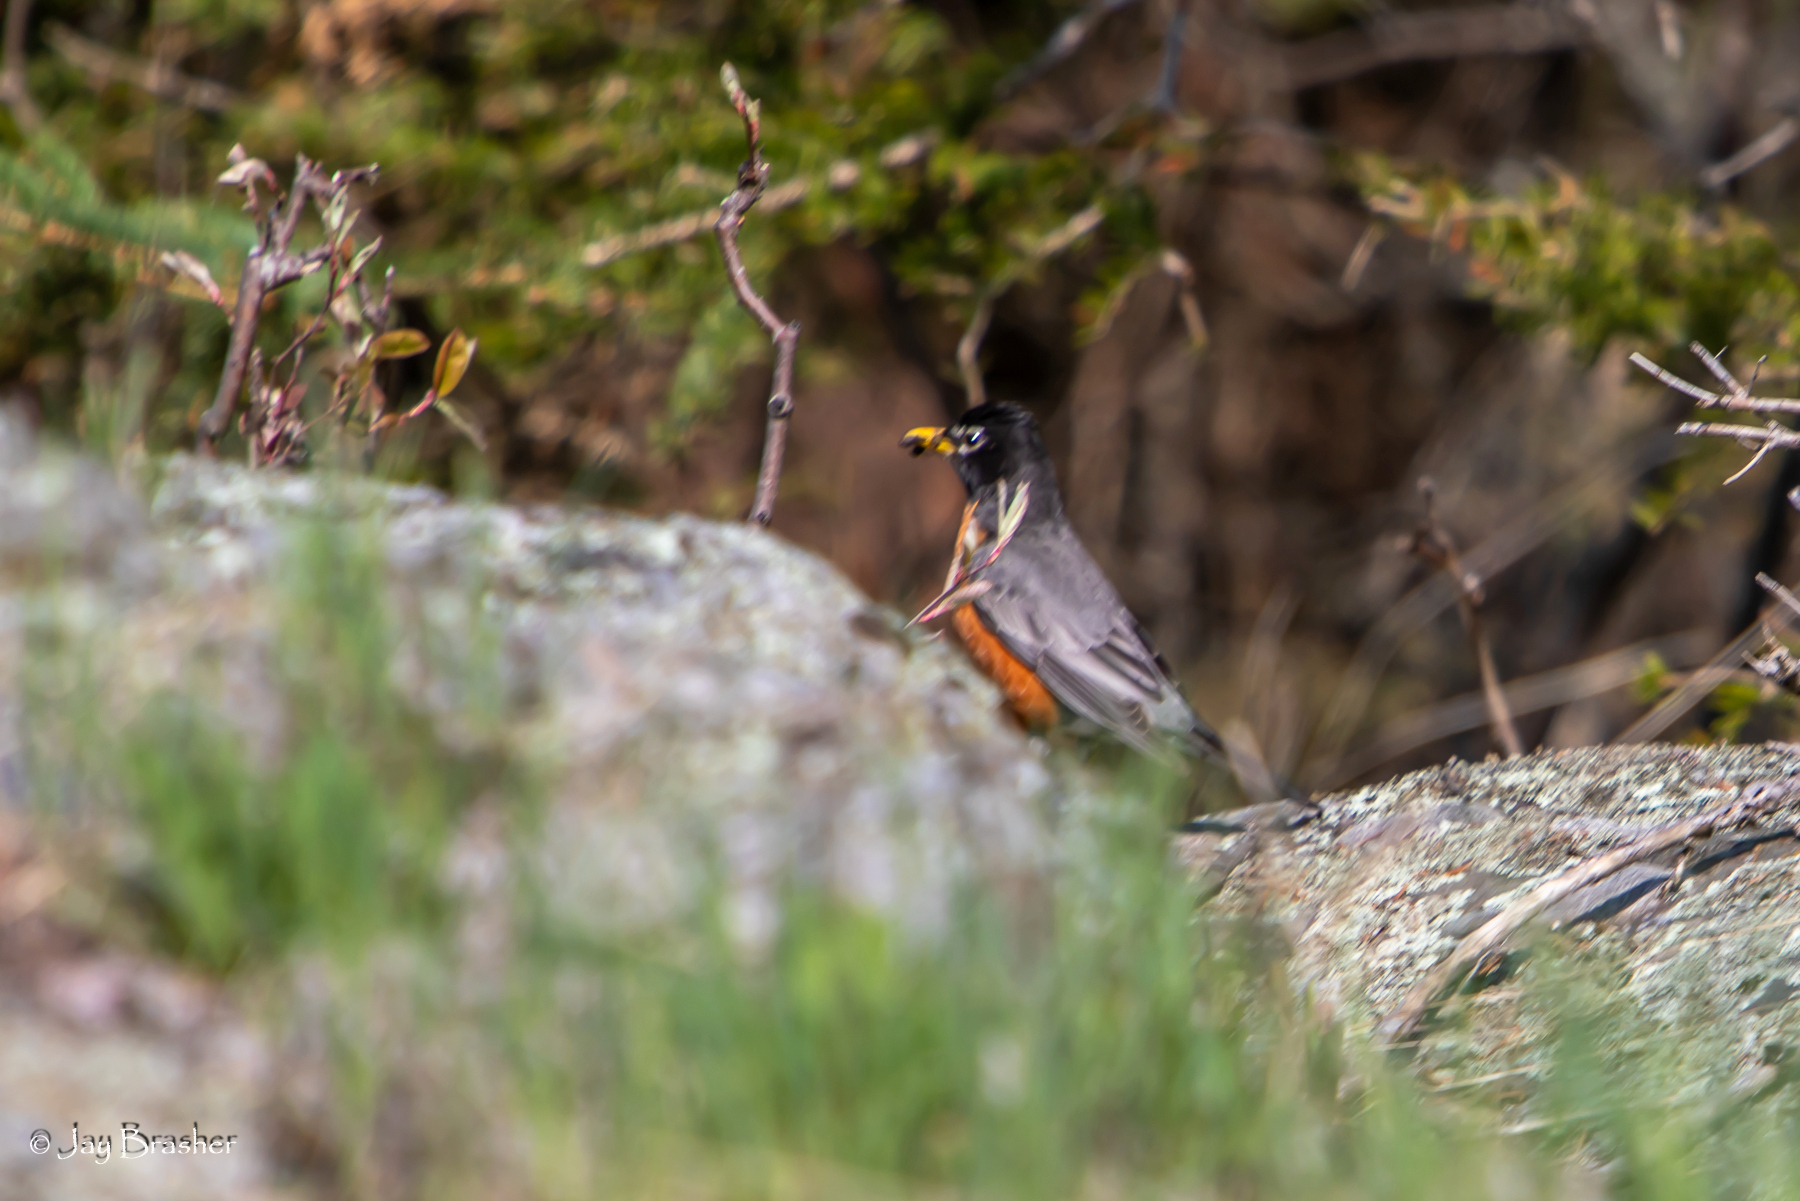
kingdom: Animalia
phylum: Chordata
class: Aves
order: Passeriformes
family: Turdidae
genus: Turdus
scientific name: Turdus migratorius
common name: American robin
